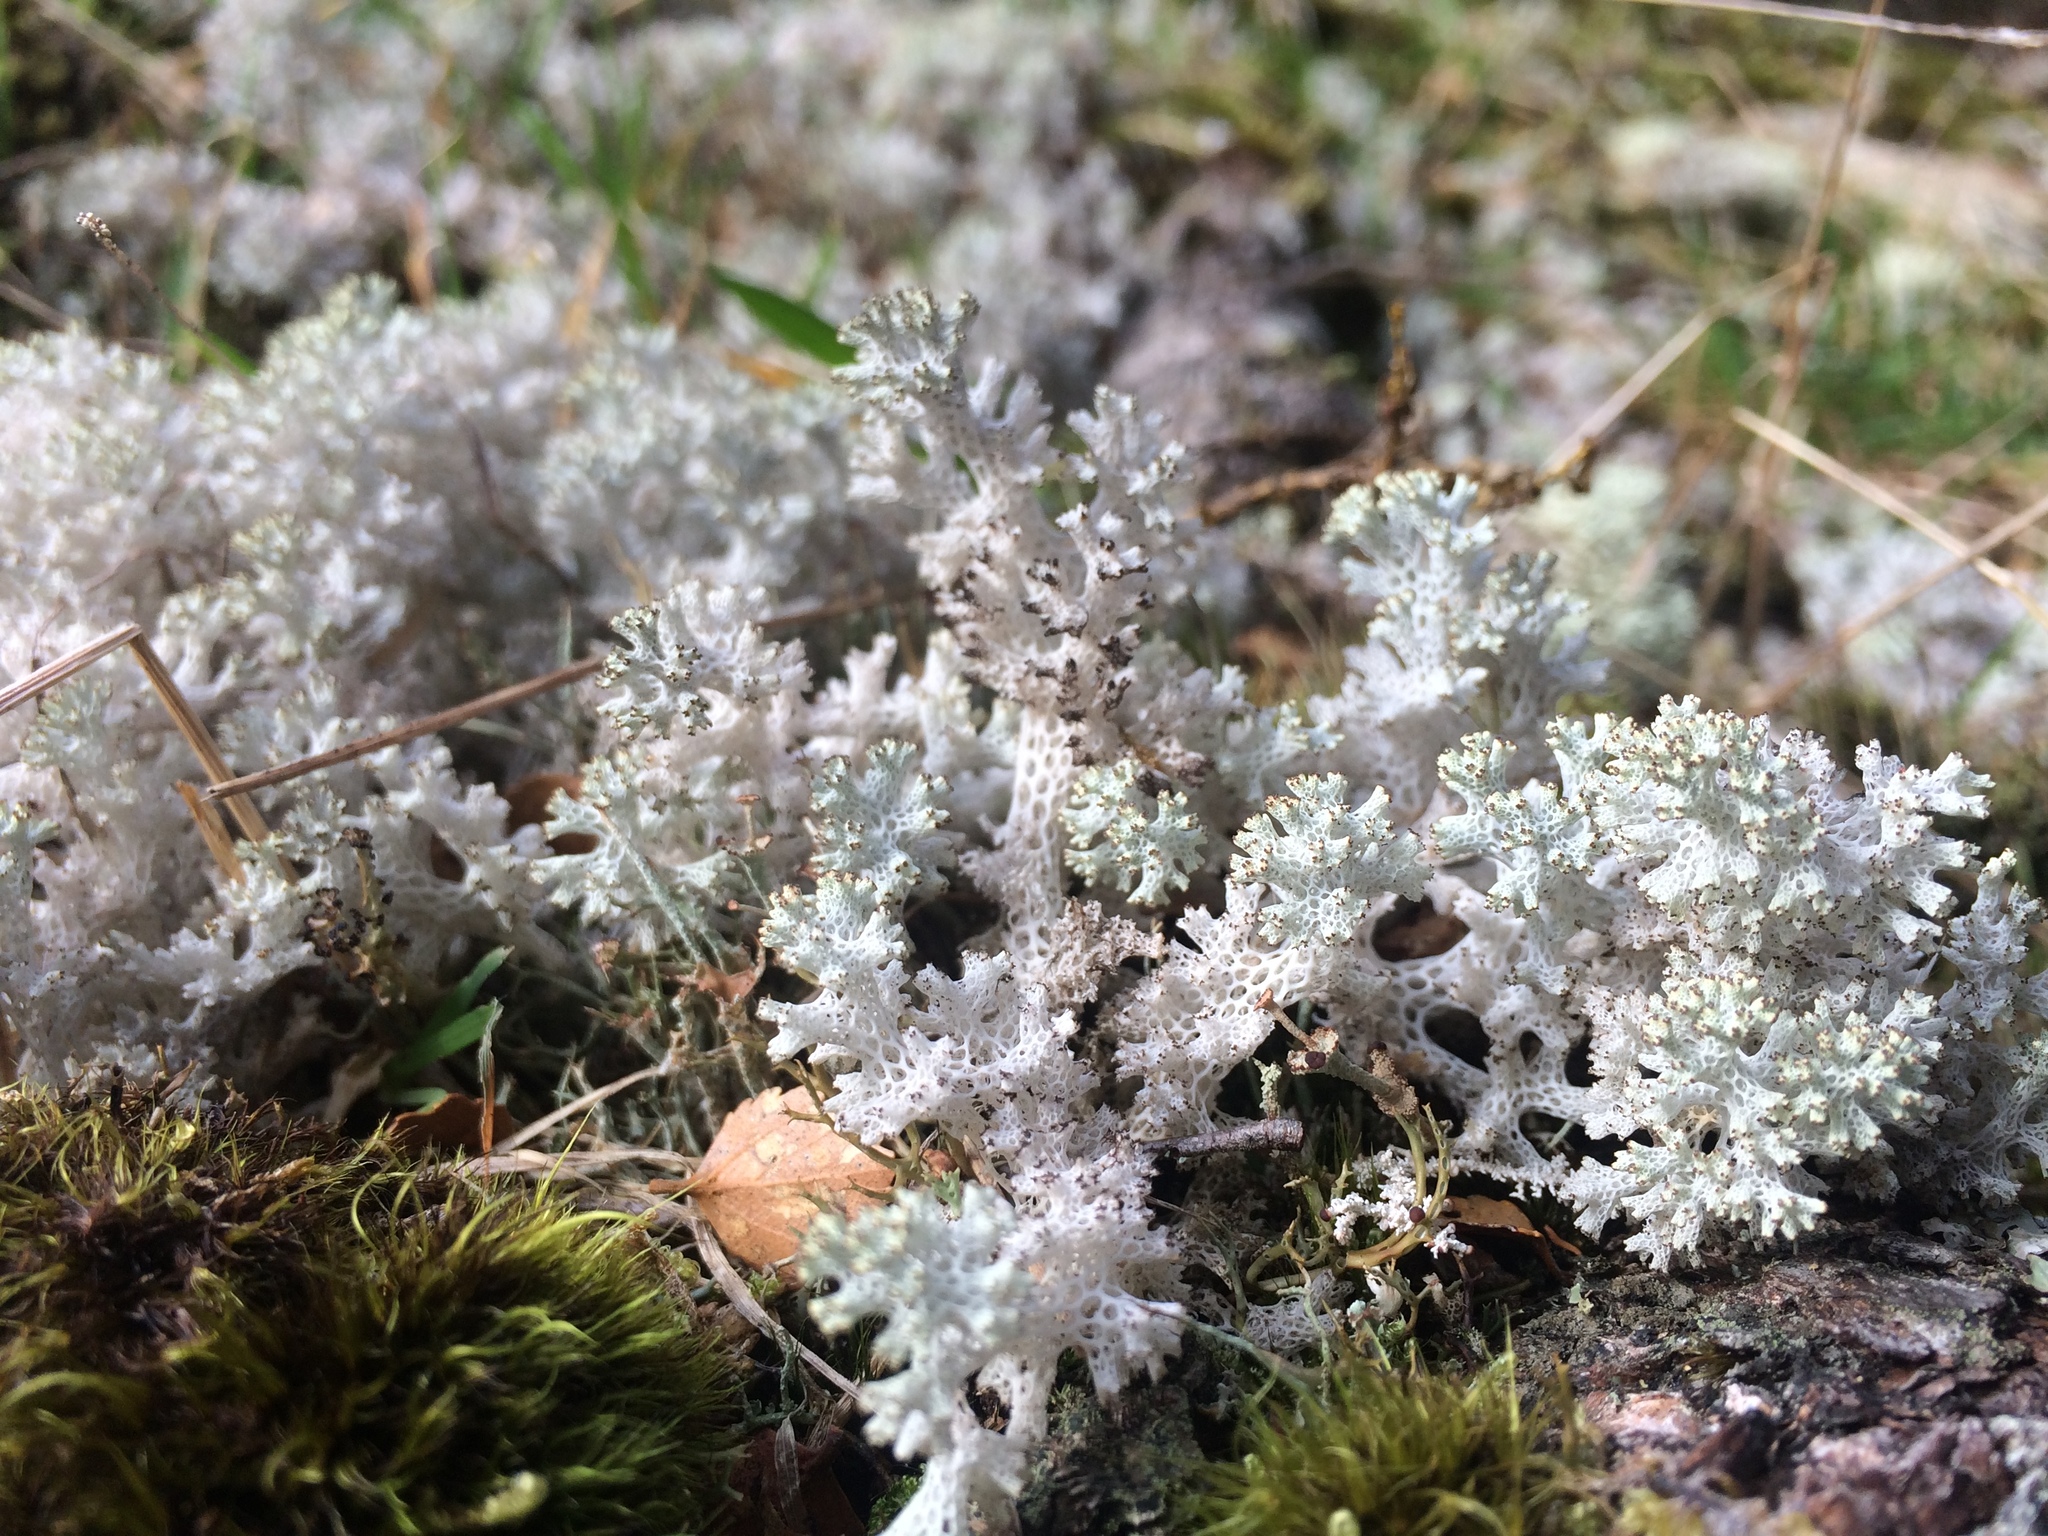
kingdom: Fungi
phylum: Ascomycota
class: Lecanoromycetes
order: Lecanorales
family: Cladoniaceae
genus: Pulchrocladia
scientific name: Pulchrocladia retipora
